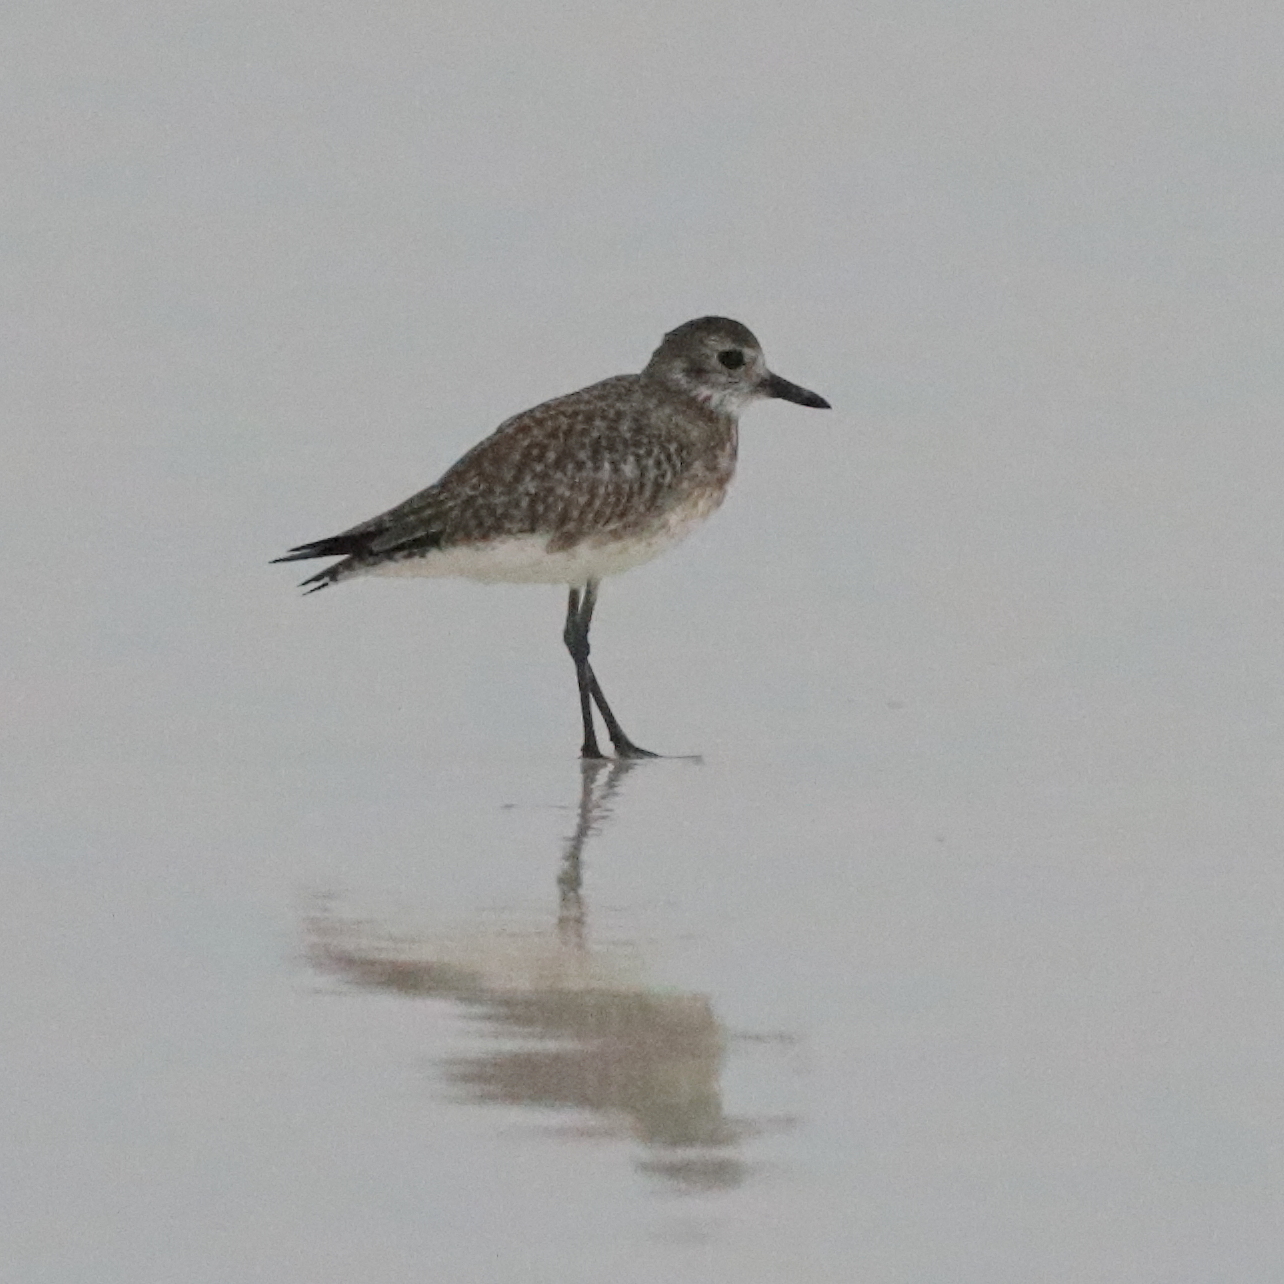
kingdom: Animalia
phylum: Chordata
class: Aves
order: Charadriiformes
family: Charadriidae
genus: Pluvialis
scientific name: Pluvialis squatarola
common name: Grey plover
